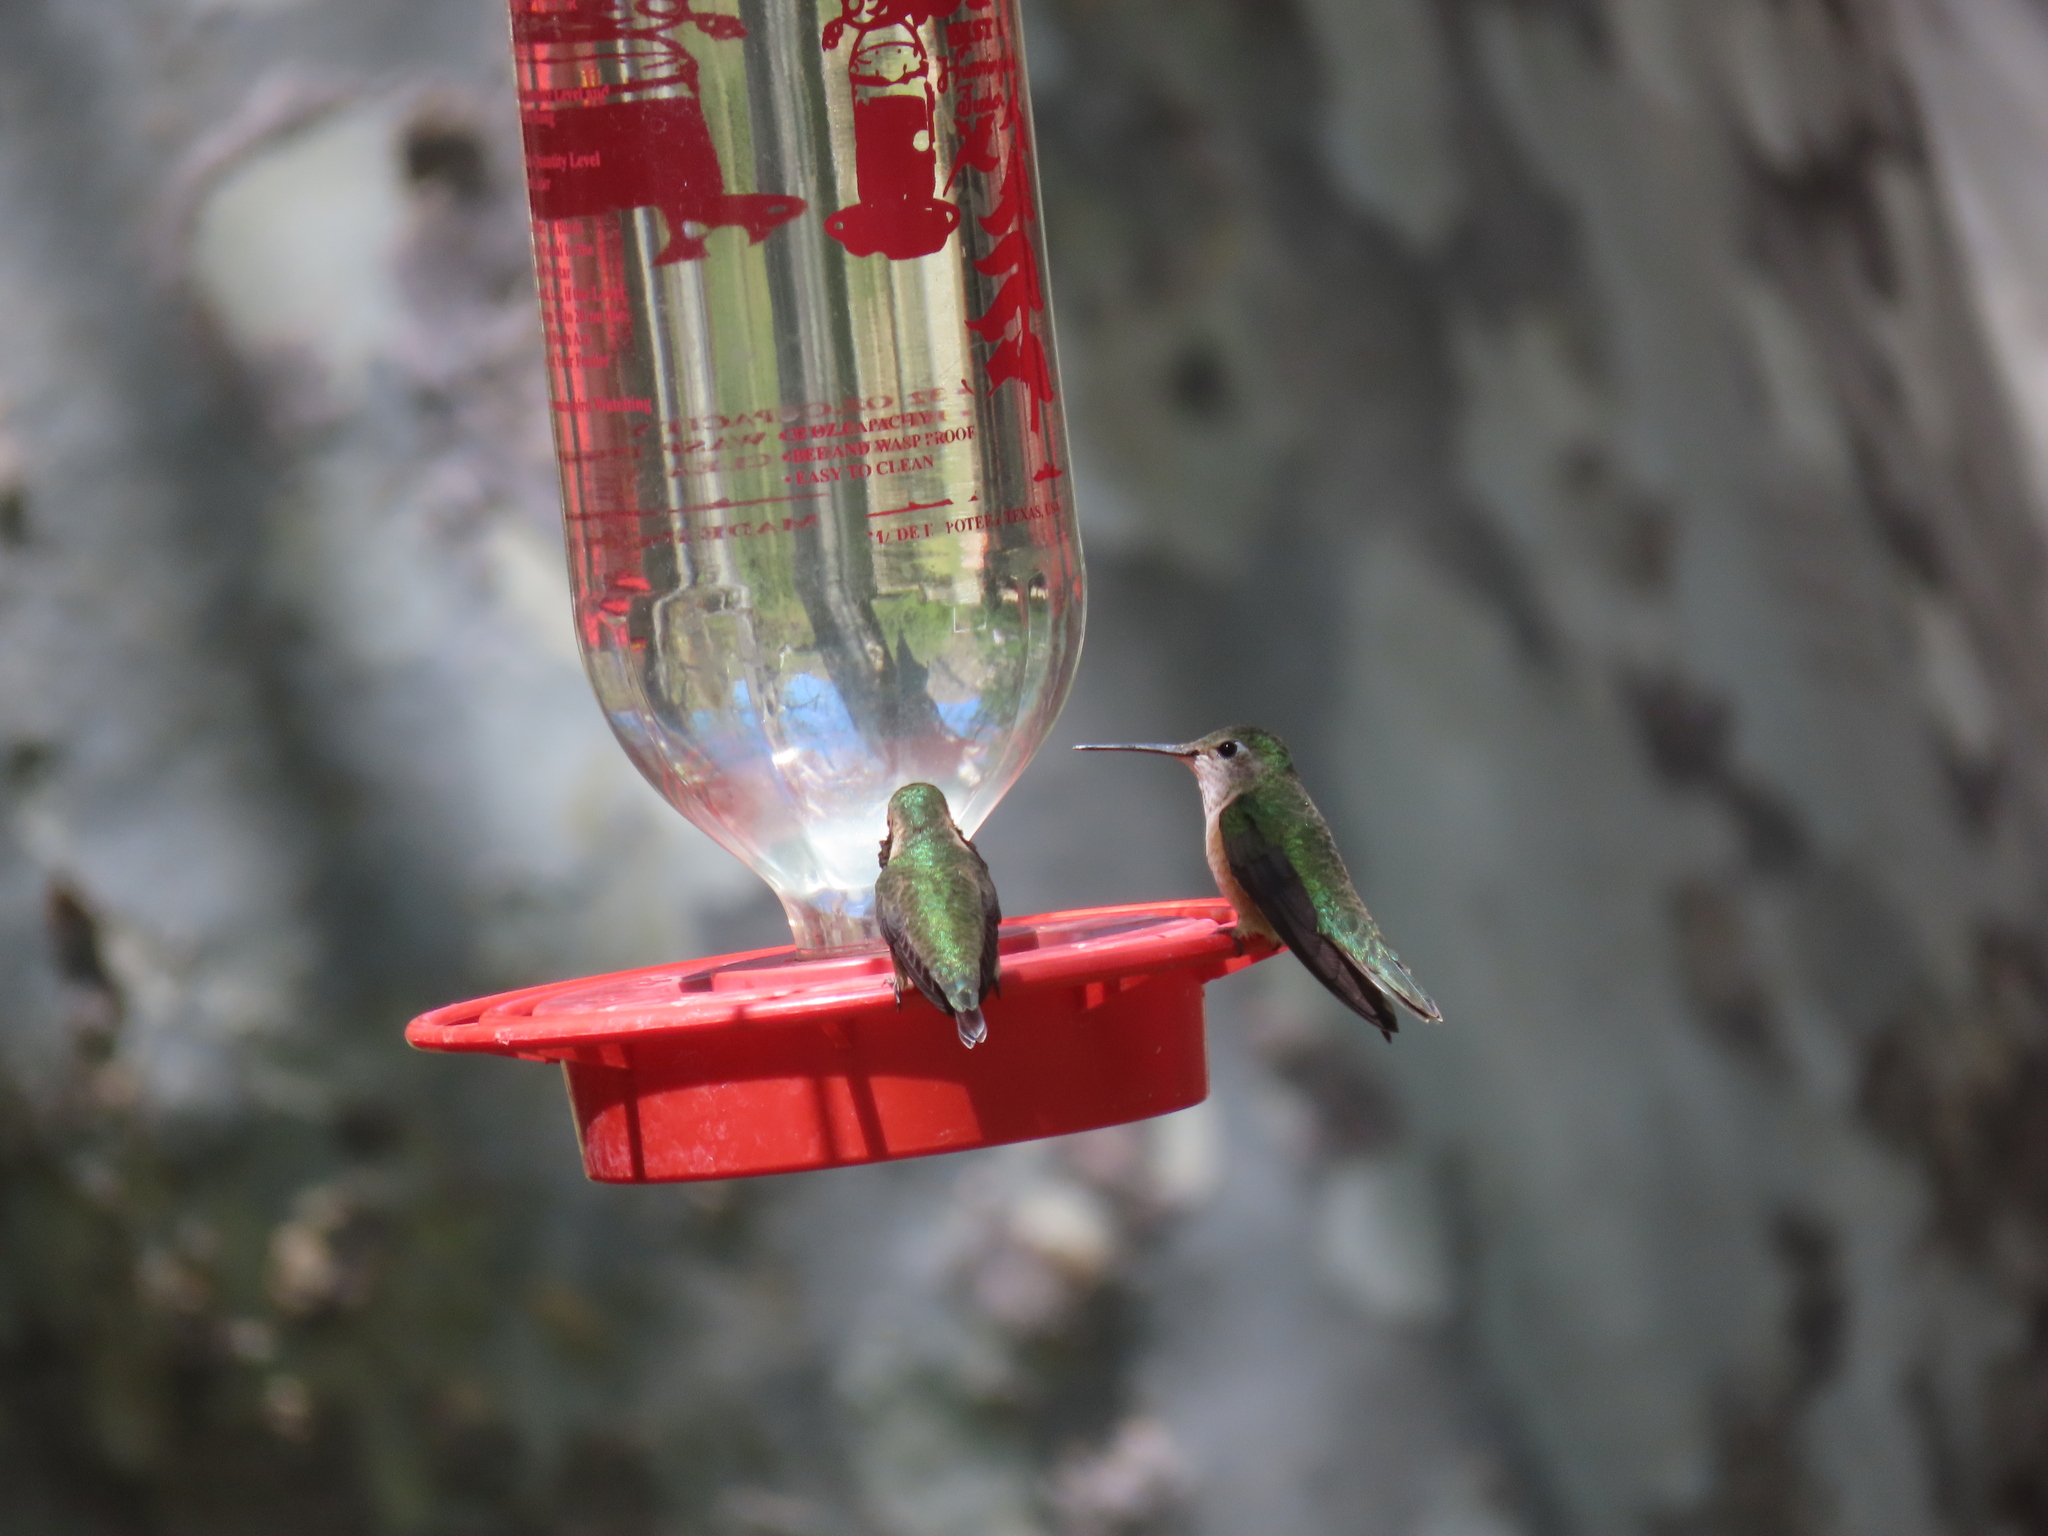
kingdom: Animalia
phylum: Chordata
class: Aves
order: Apodiformes
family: Trochilidae
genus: Selasphorus
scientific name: Selasphorus platycercus
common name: Broad-tailed hummingbird
